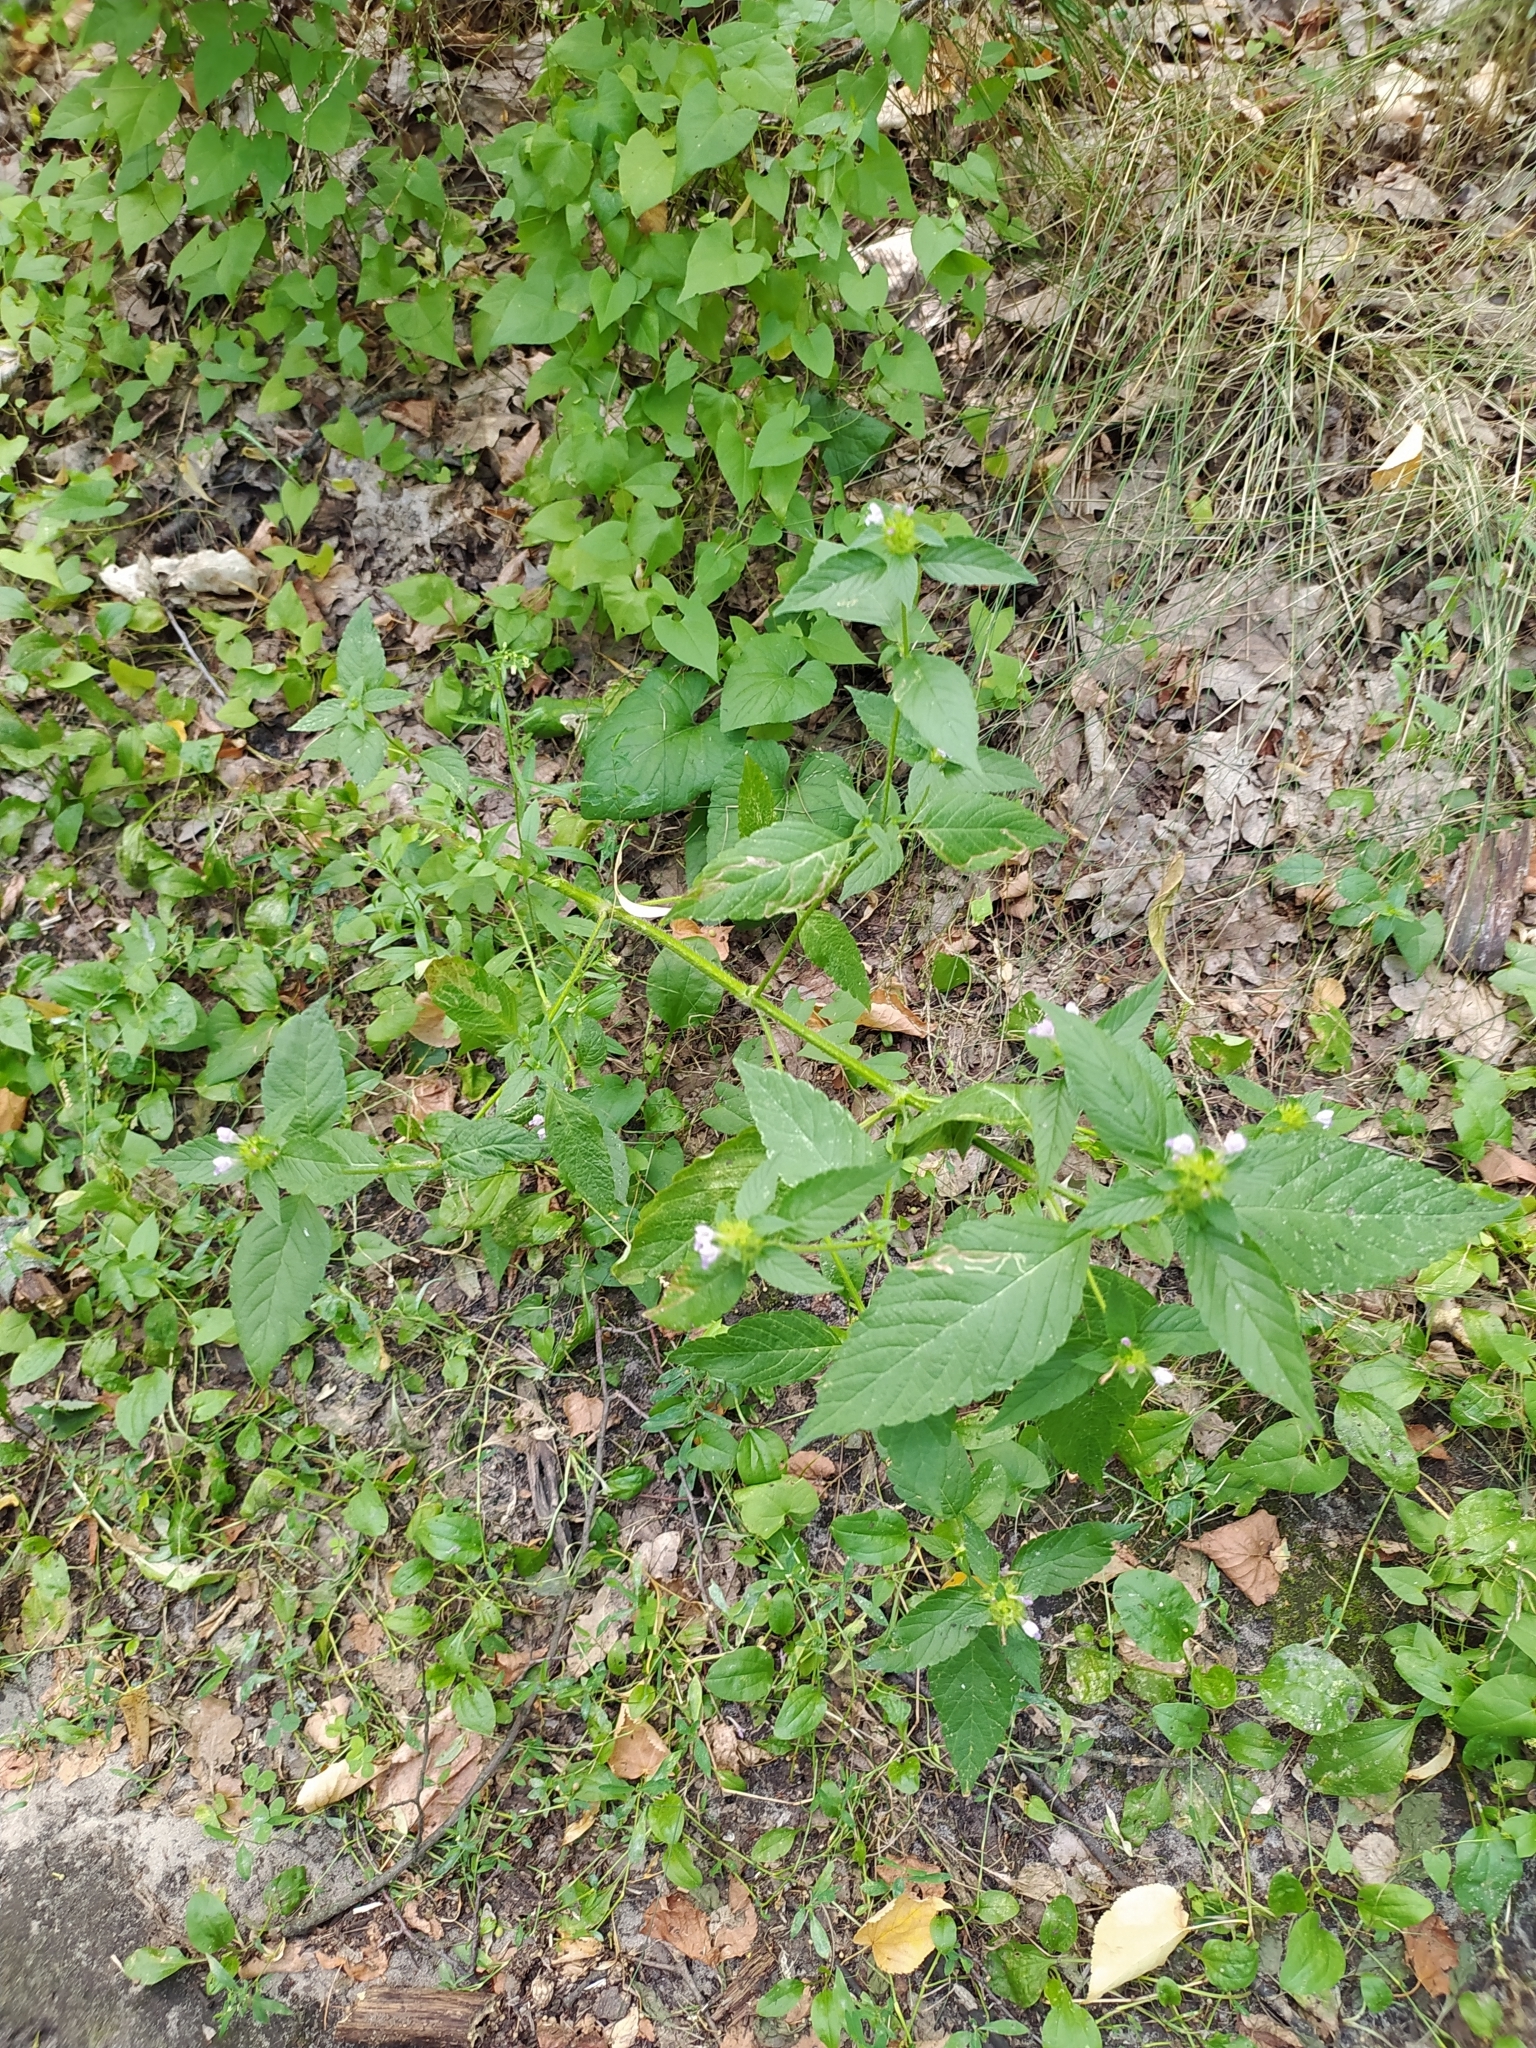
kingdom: Plantae
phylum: Tracheophyta
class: Magnoliopsida
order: Lamiales
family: Lamiaceae
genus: Galeopsis
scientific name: Galeopsis bifida
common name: Bifid hemp-nettle
